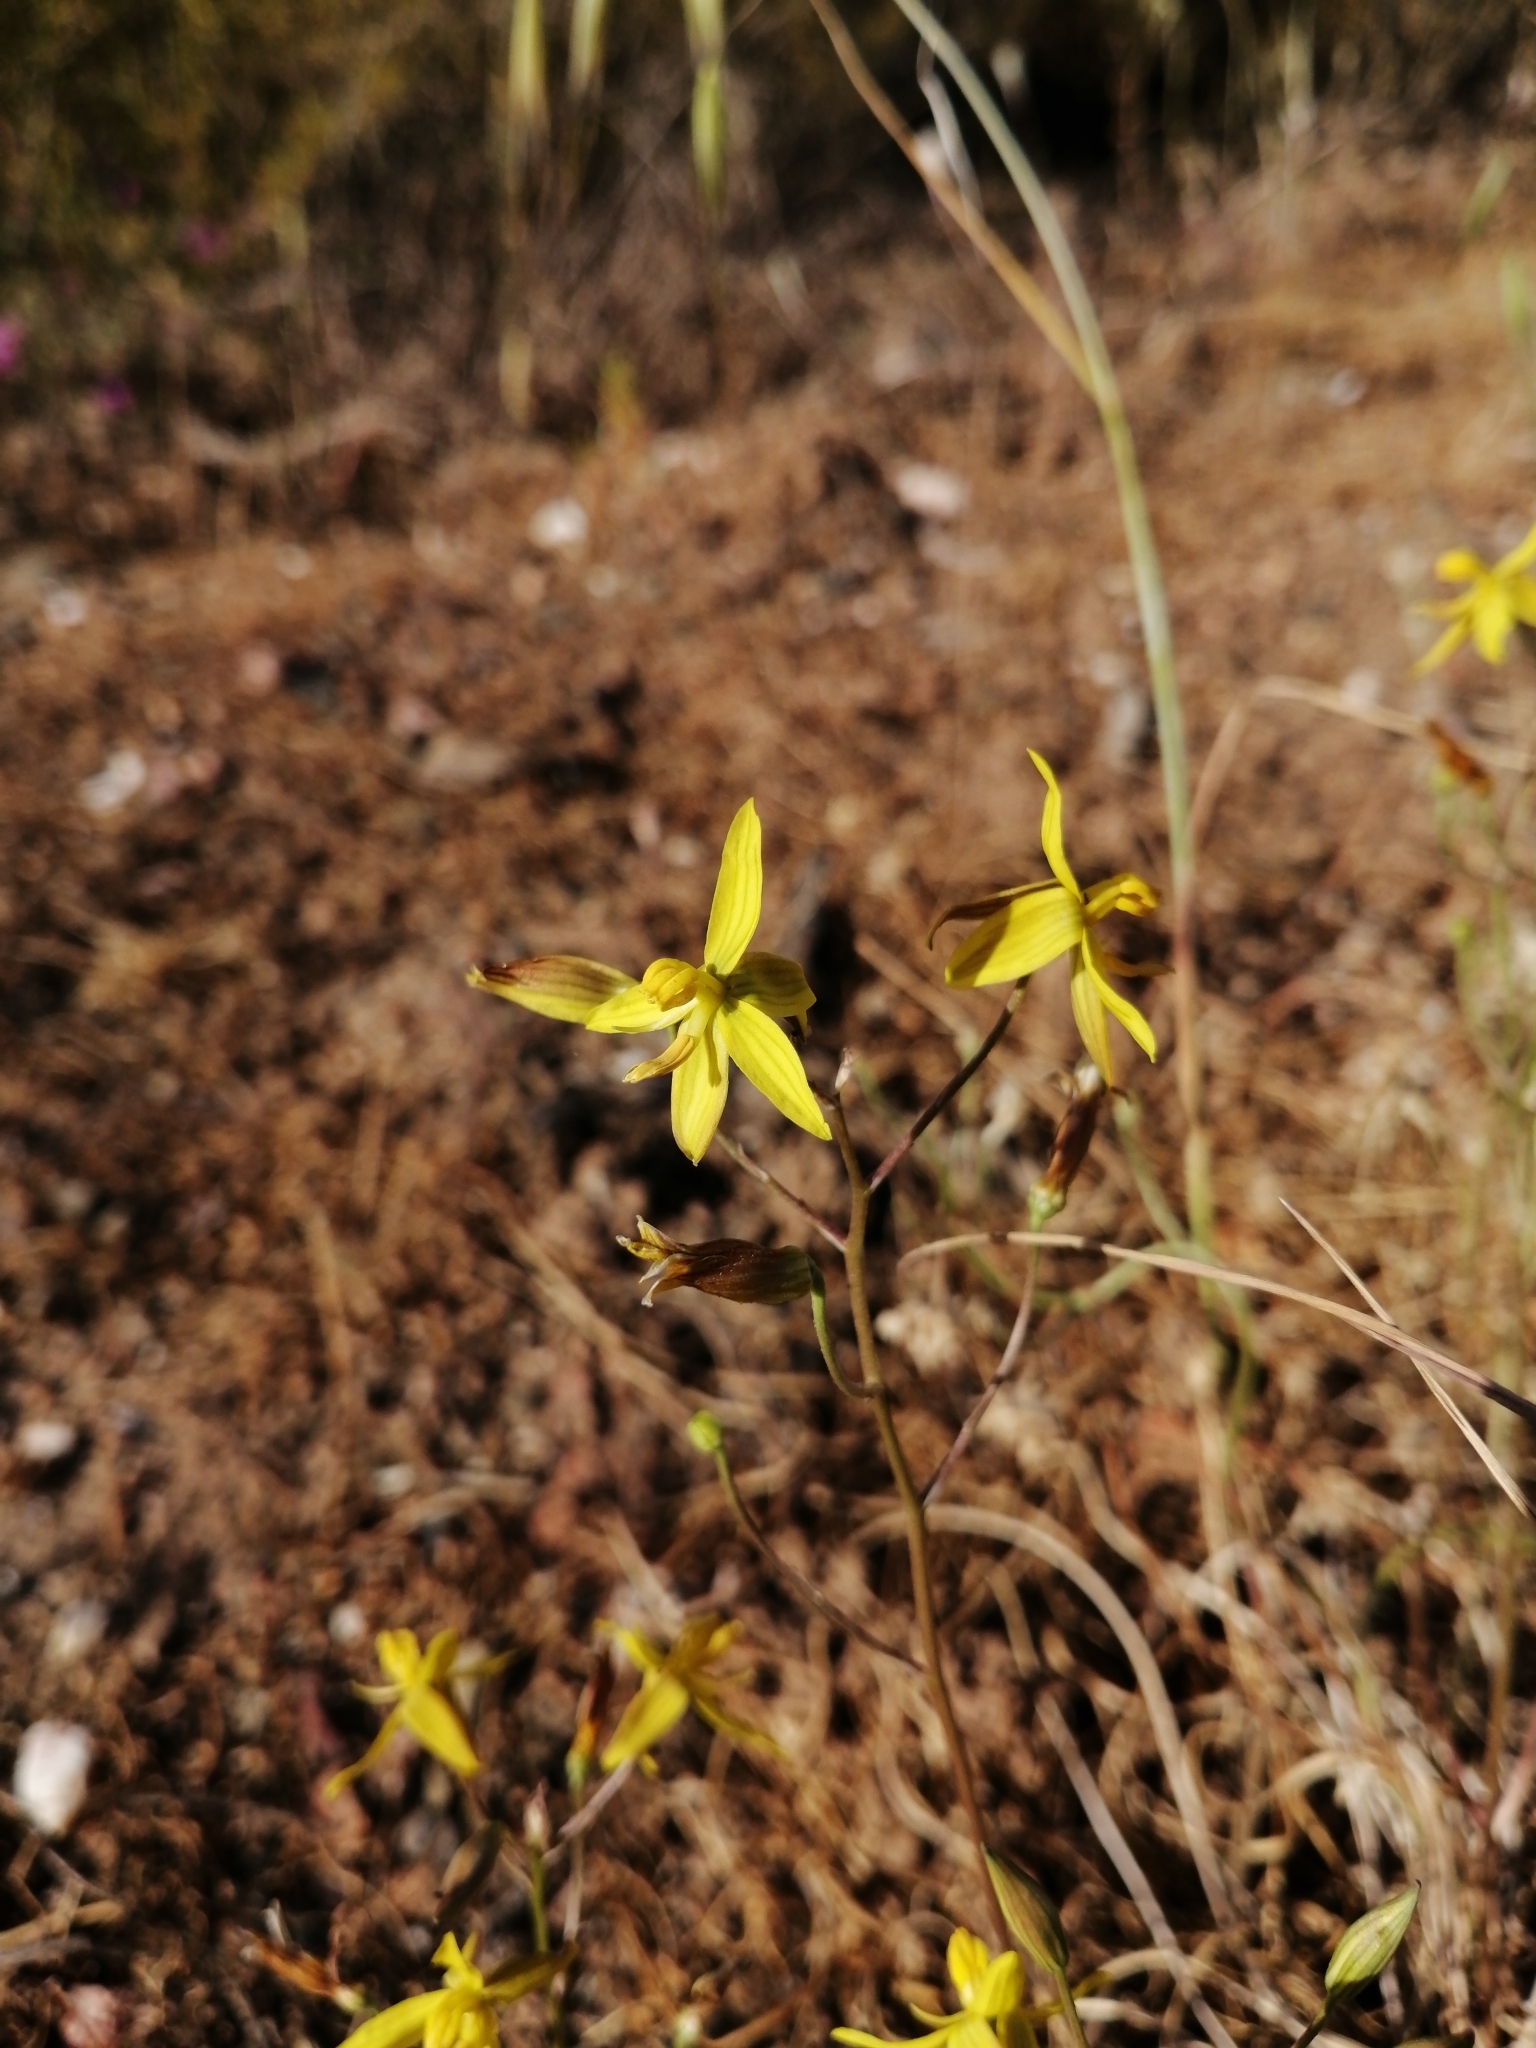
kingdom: Plantae
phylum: Tracheophyta
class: Liliopsida
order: Asparagales
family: Tecophilaeaceae
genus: Cyanella
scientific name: Cyanella lutea
